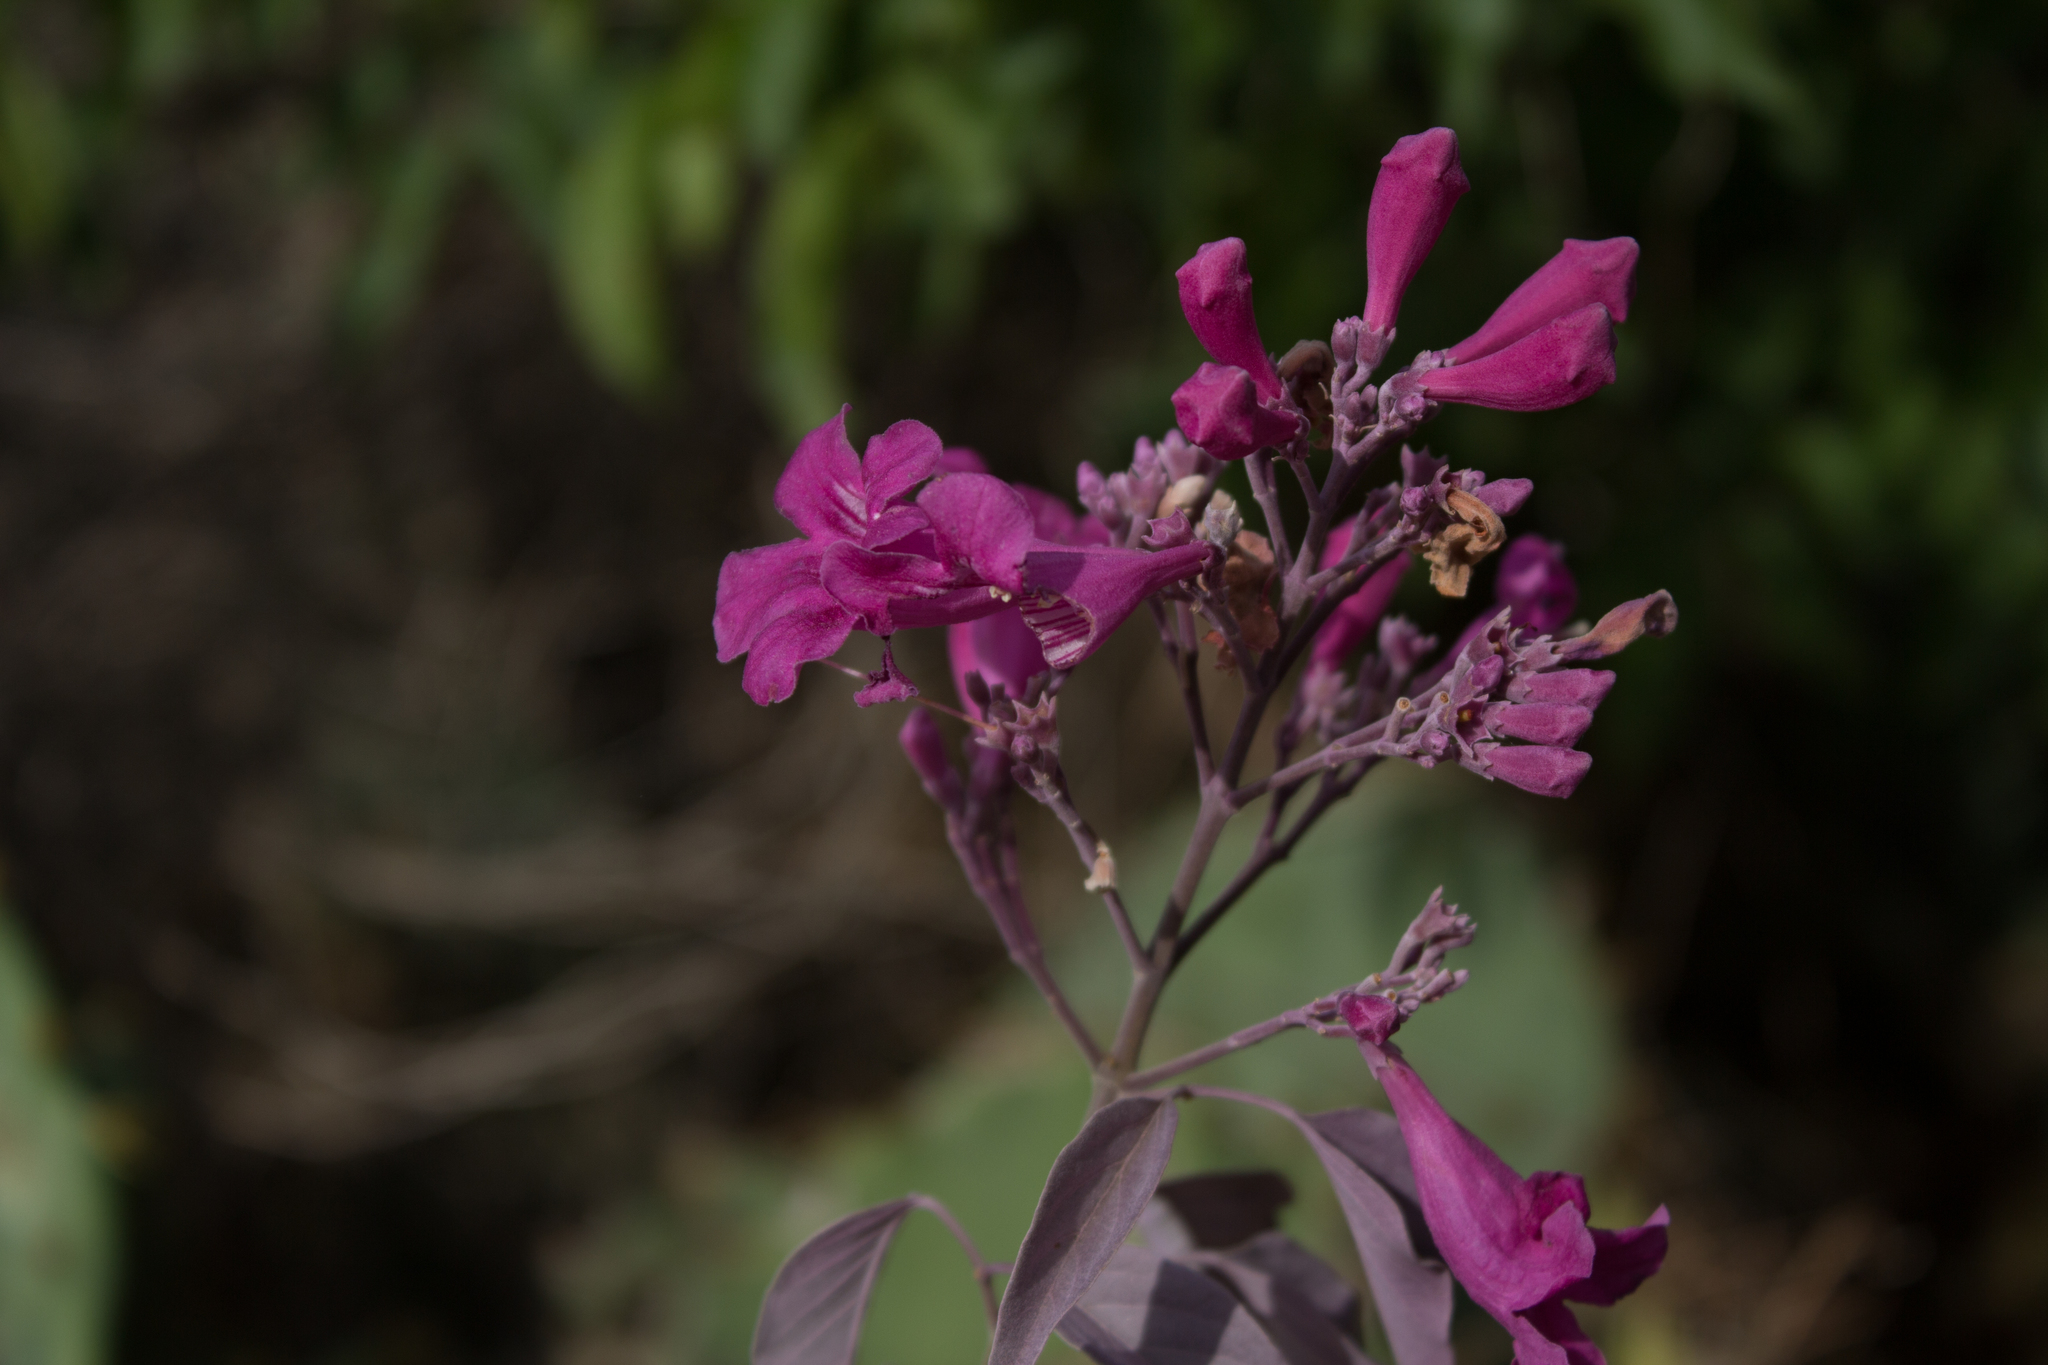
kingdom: Plantae
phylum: Tracheophyta
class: Magnoliopsida
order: Lamiales
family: Bignoniaceae
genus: Cuspidaria
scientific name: Cuspidaria argentea
